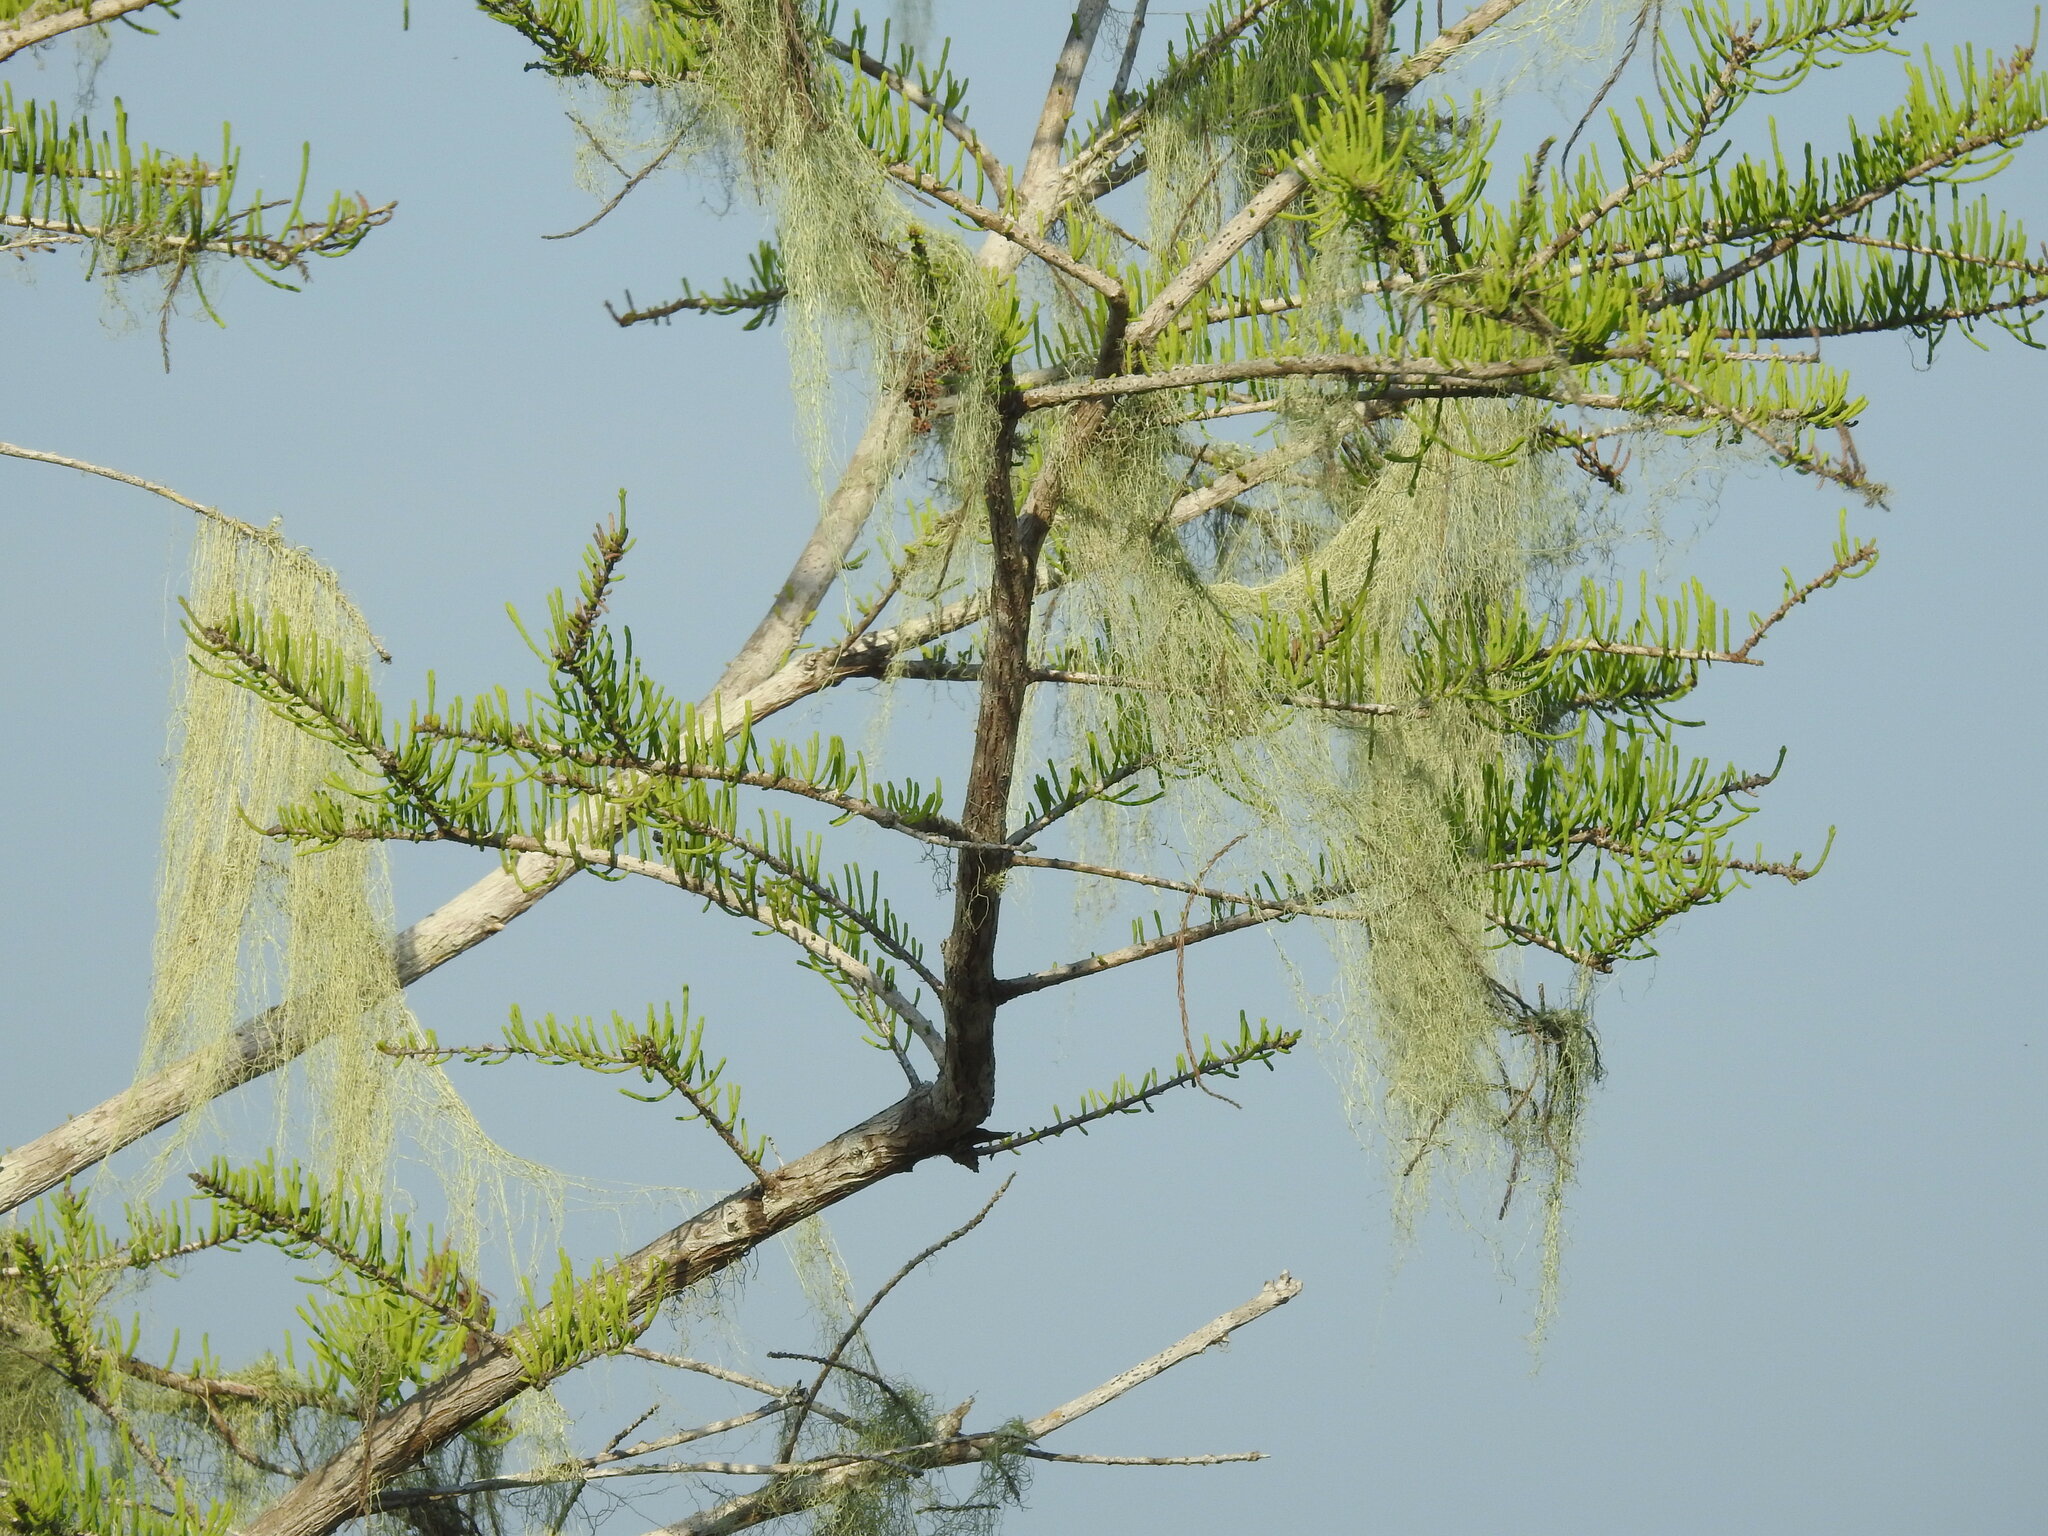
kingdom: Plantae
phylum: Tracheophyta
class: Pinopsida
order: Pinales
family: Cupressaceae
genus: Taxodium
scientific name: Taxodium distichum
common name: Bald cypress
